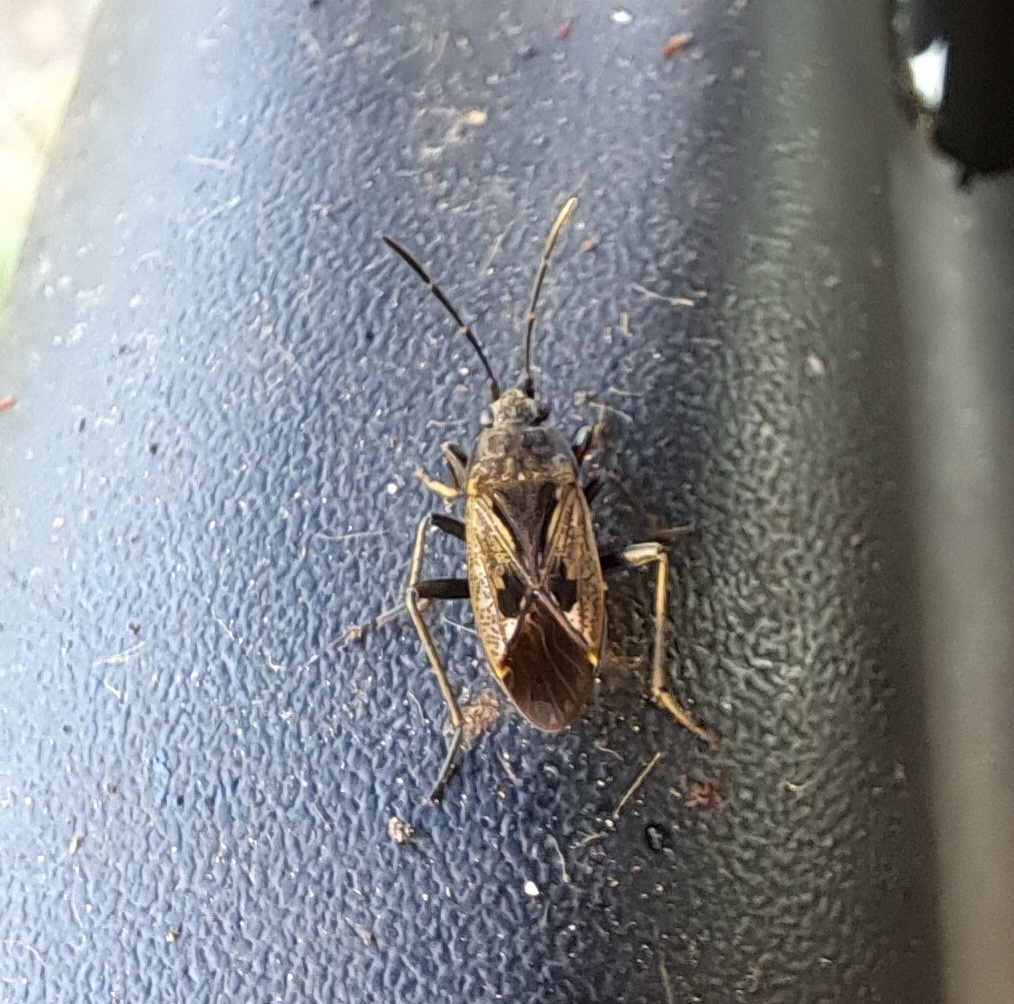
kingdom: Animalia
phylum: Arthropoda
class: Insecta
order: Hemiptera
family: Rhyparochromidae
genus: Rhyparochromus
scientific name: Rhyparochromus pini
